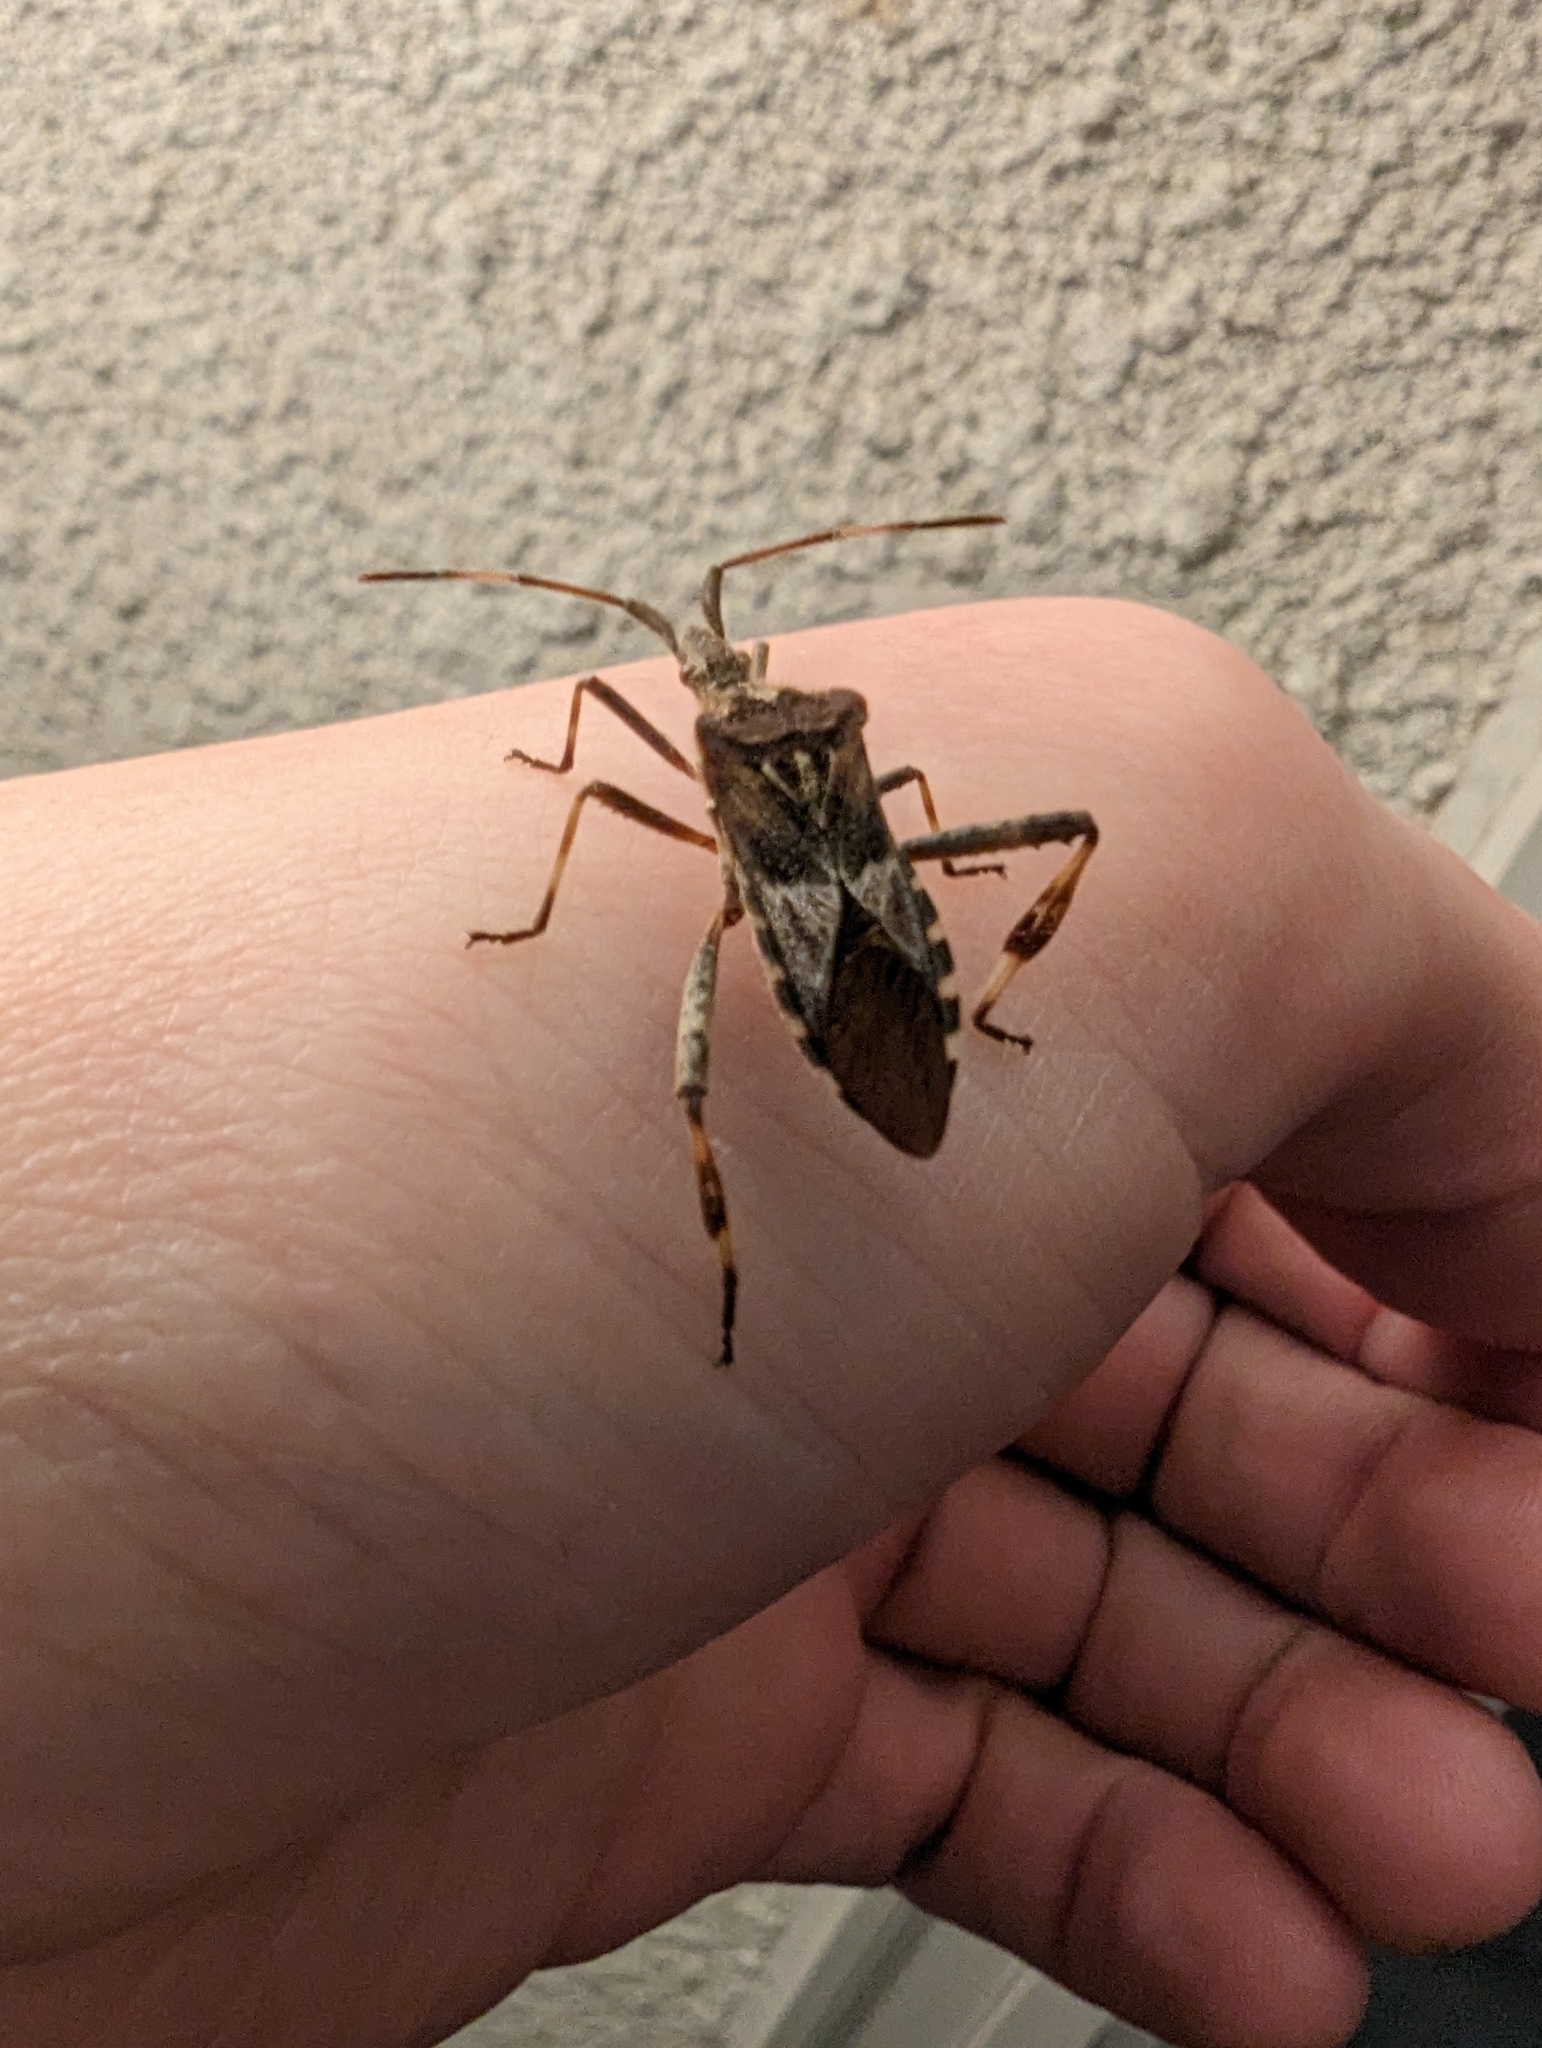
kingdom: Animalia
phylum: Arthropoda
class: Insecta
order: Hemiptera
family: Coreidae
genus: Leptoglossus
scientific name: Leptoglossus occidentalis
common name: Western conifer-seed bug
